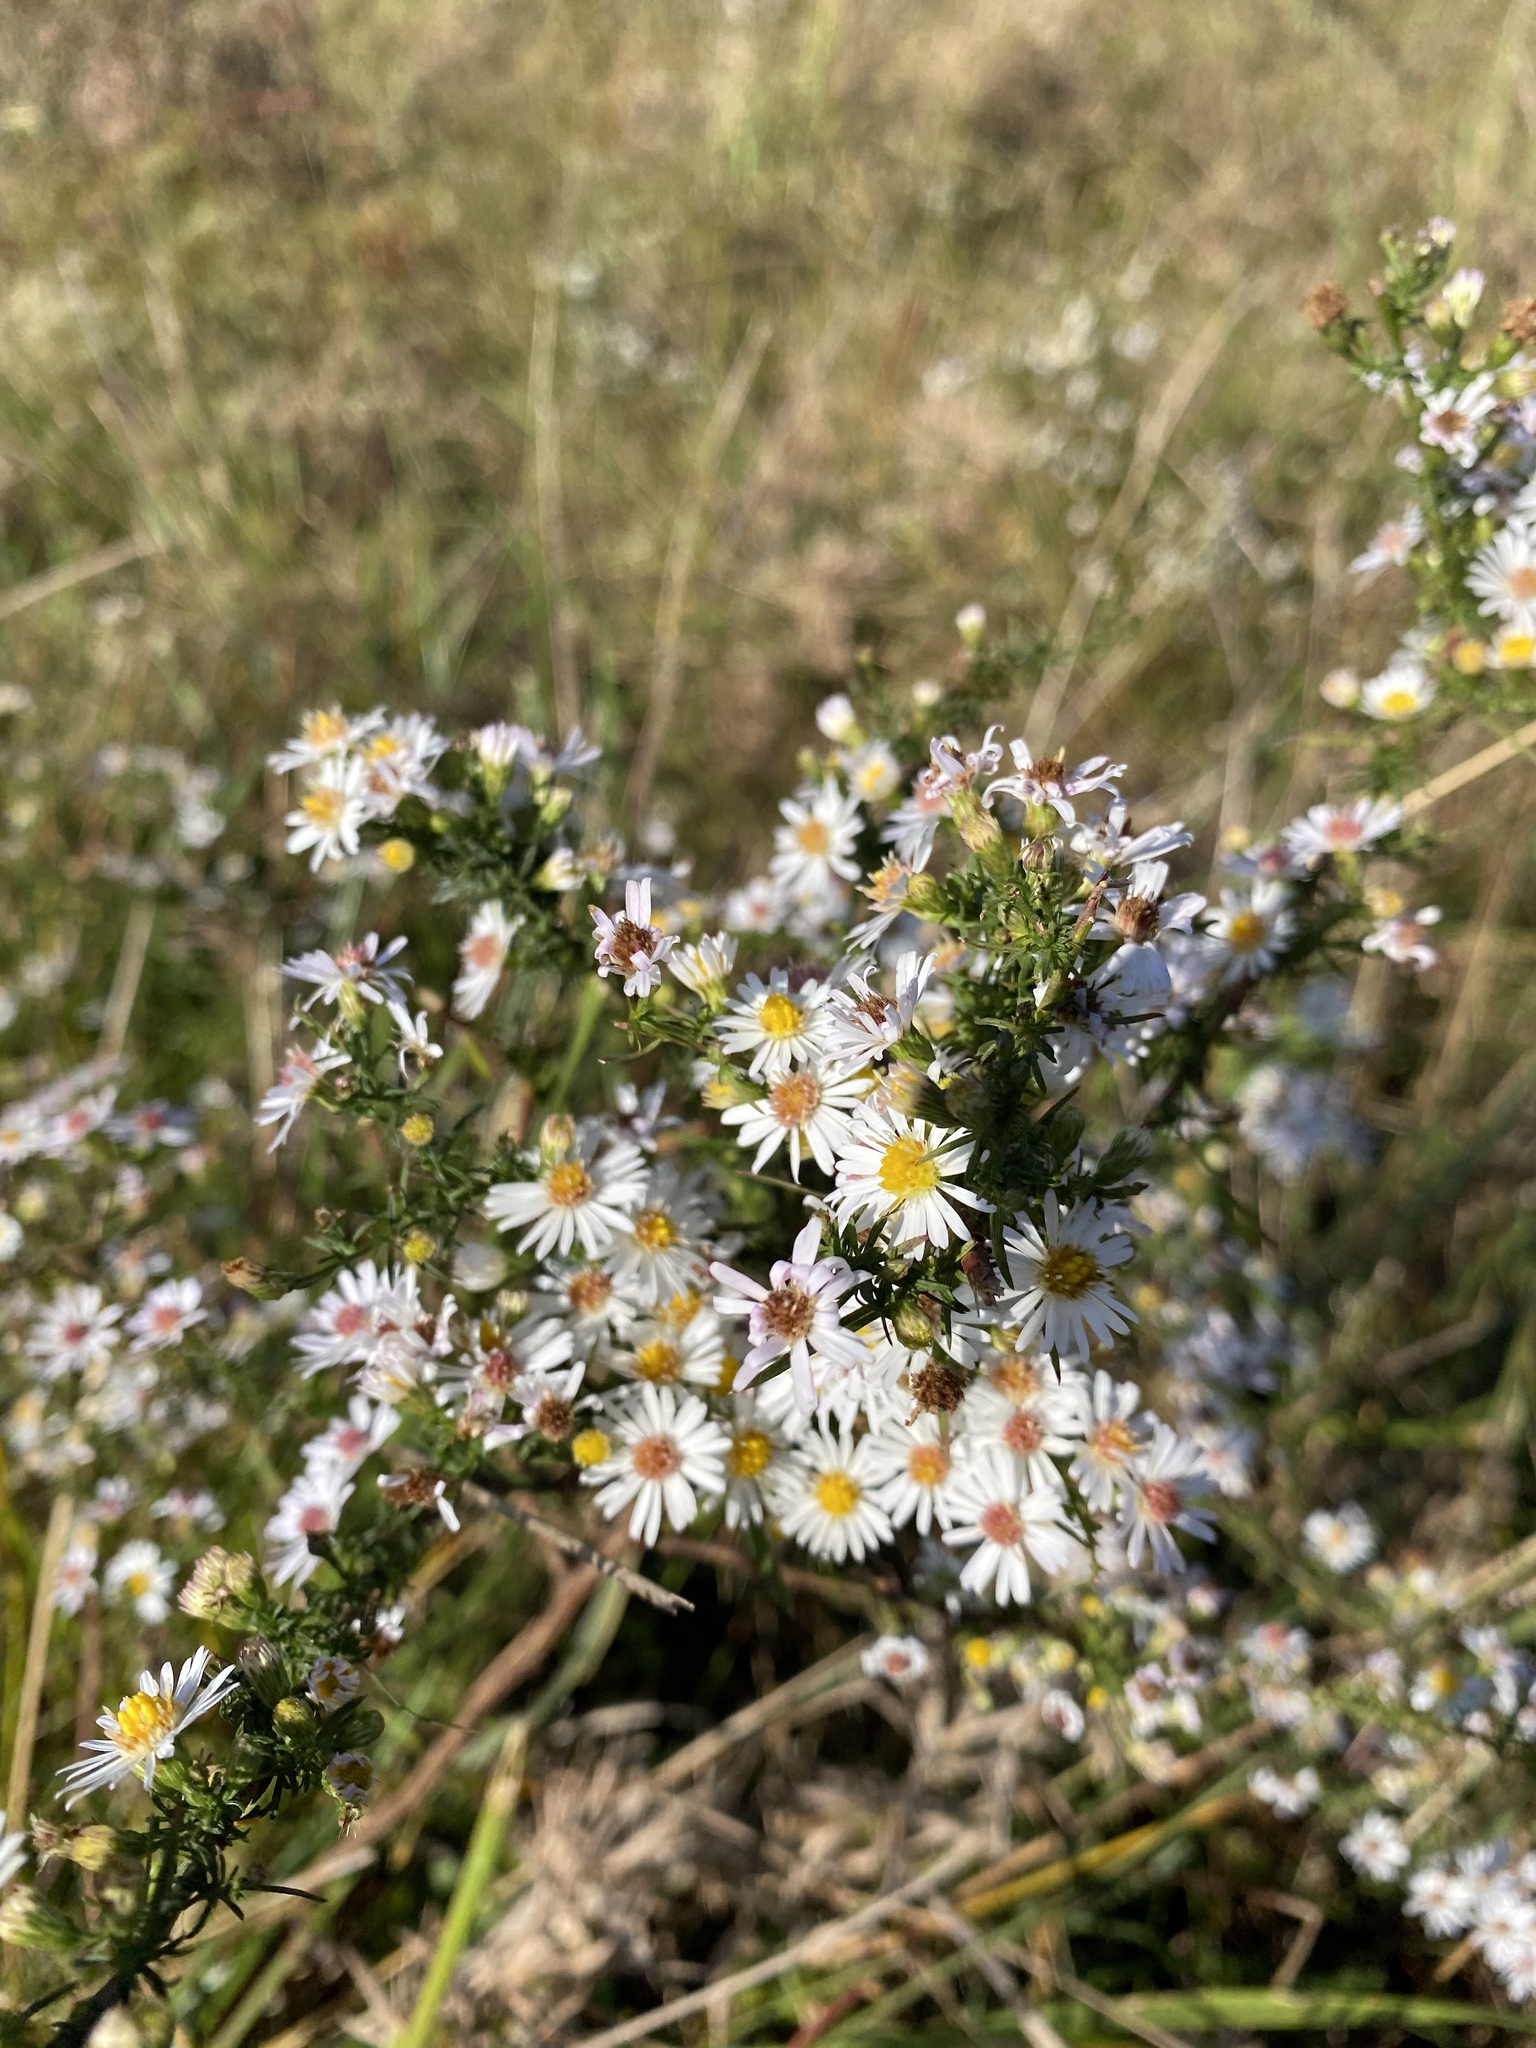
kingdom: Plantae
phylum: Tracheophyta
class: Magnoliopsida
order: Asterales
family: Asteraceae
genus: Symphyotrichum
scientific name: Symphyotrichum racemosum
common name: Small white aster
